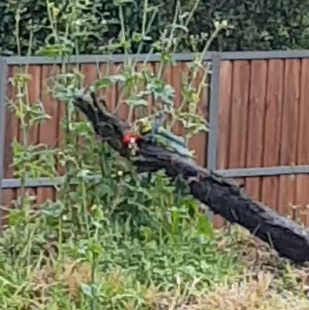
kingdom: Animalia
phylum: Chordata
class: Aves
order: Psittaciformes
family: Psittacidae
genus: Platycercus
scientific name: Platycercus eximius
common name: Eastern rosella
